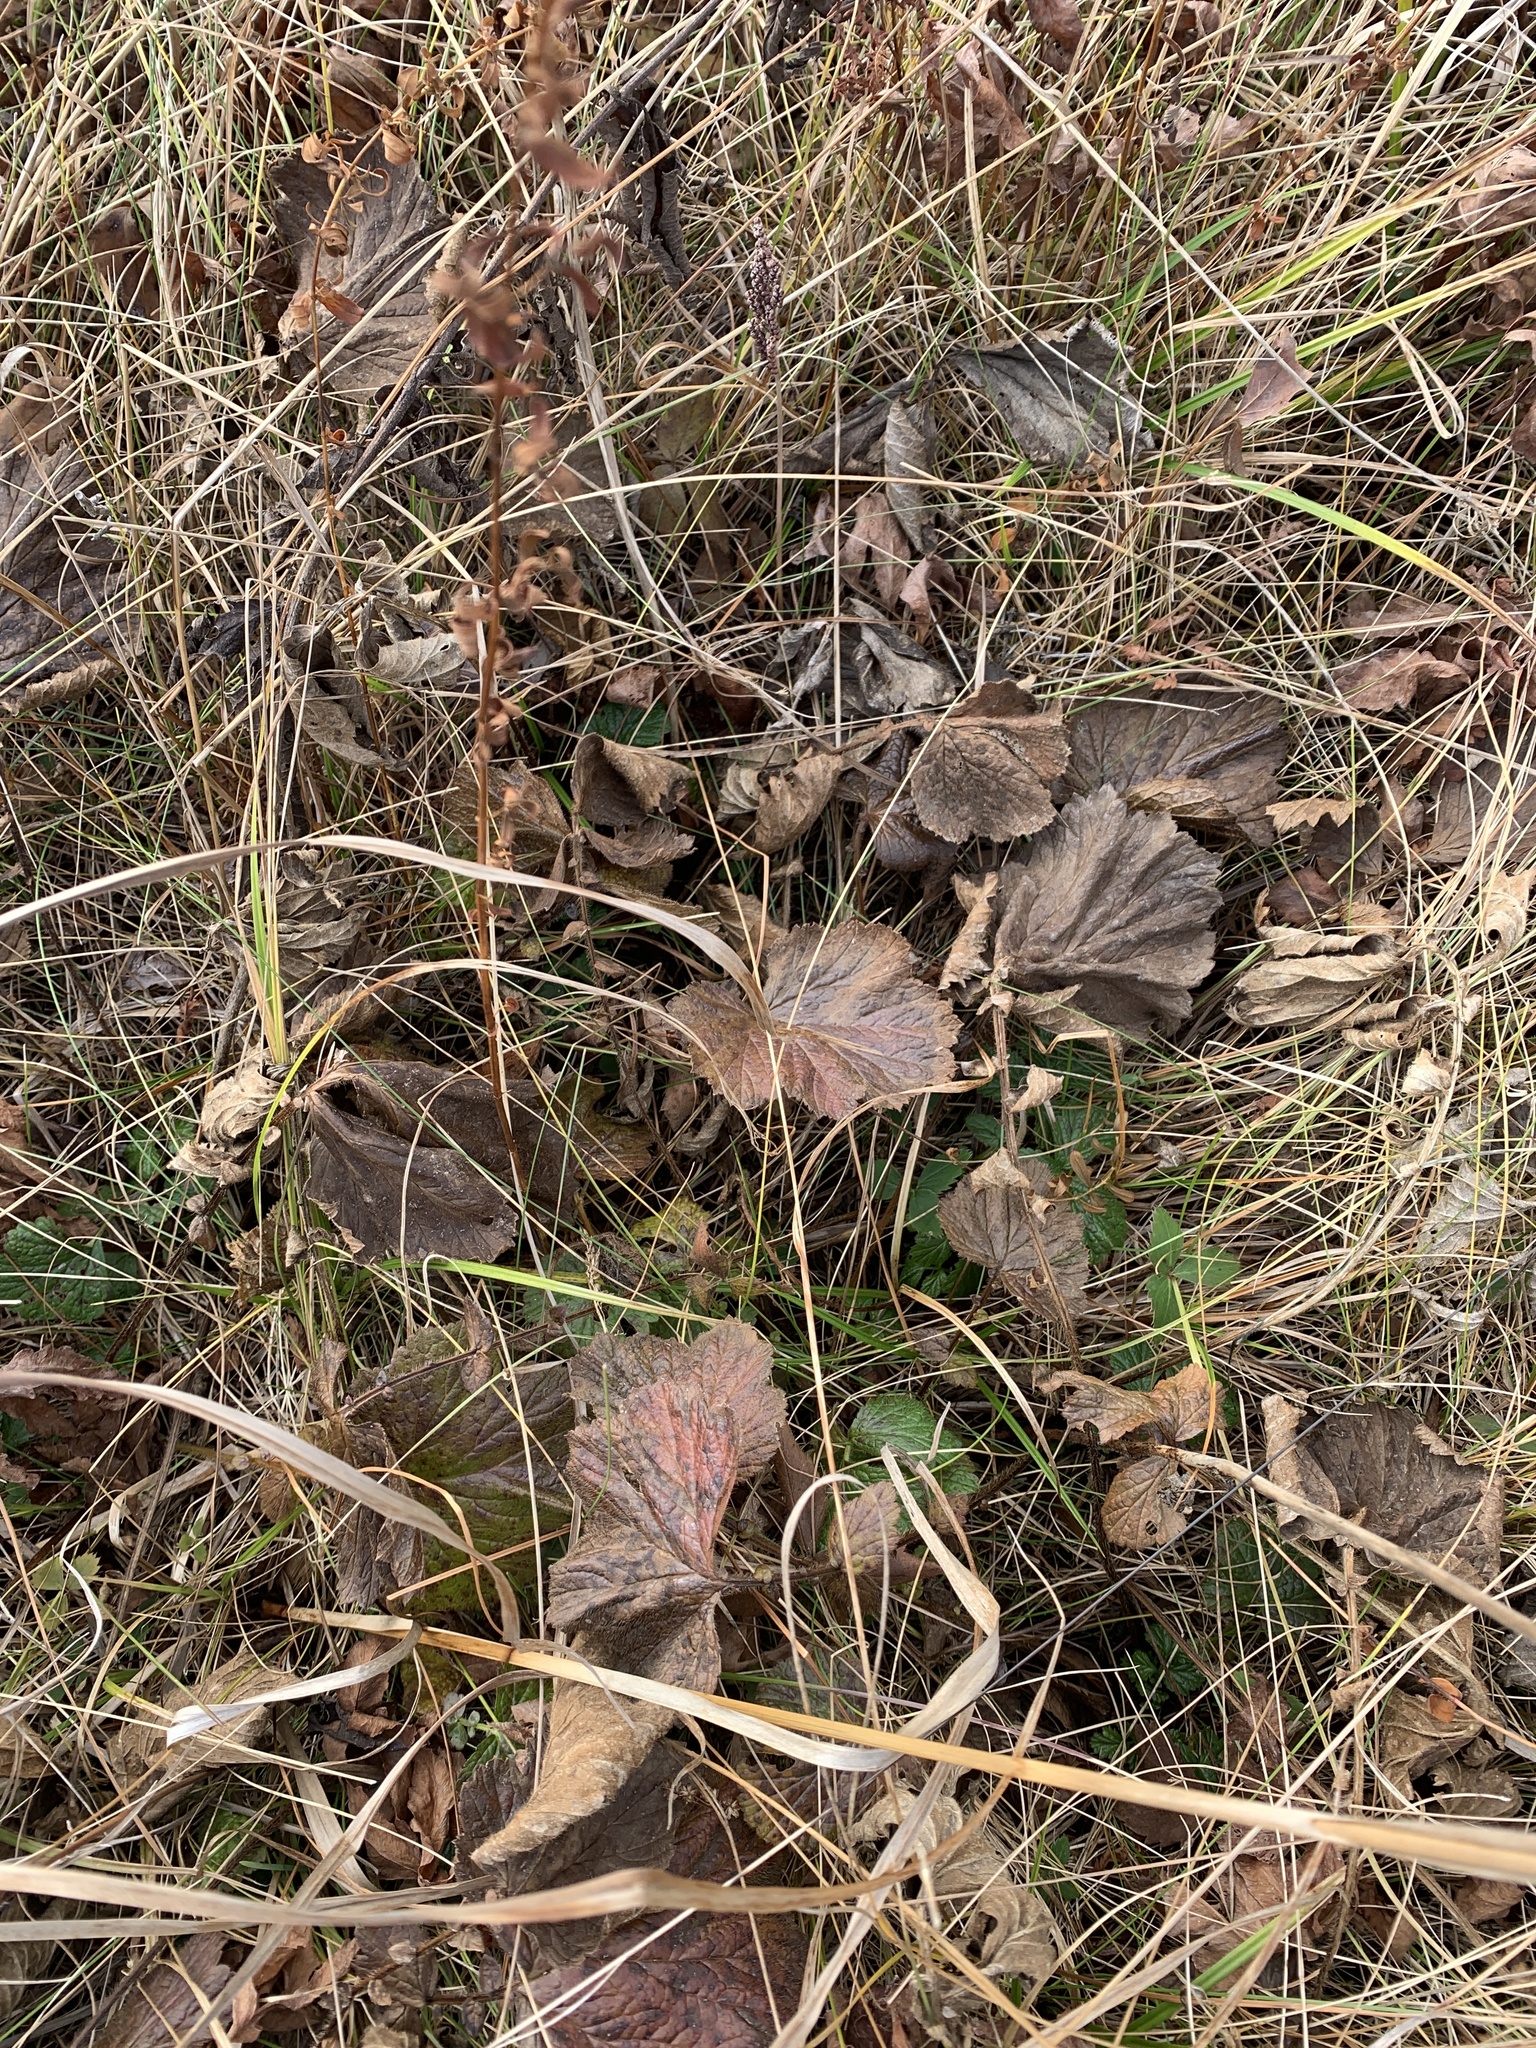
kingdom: Plantae
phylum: Tracheophyta
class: Magnoliopsida
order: Rosales
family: Rosaceae
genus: Geum
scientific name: Geum rivale
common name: Water avens
